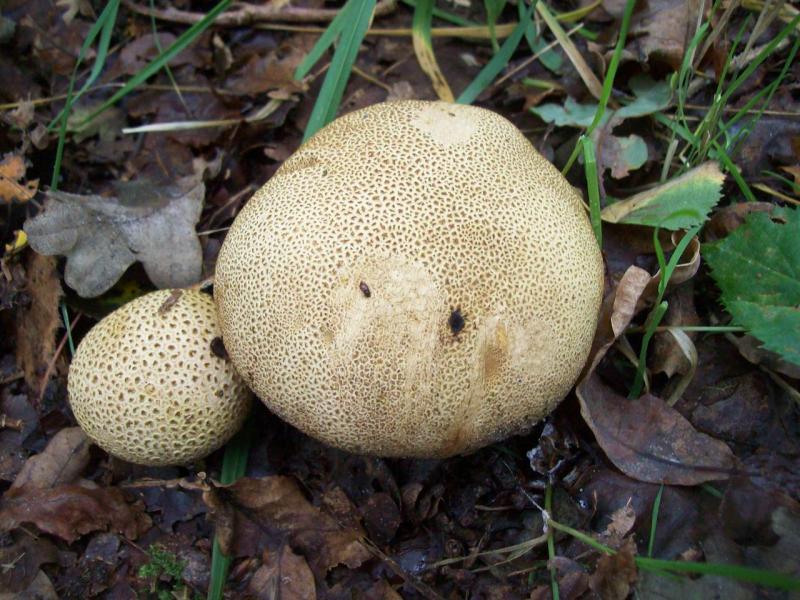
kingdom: Fungi
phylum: Basidiomycota
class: Agaricomycetes
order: Boletales
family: Sclerodermataceae
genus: Scleroderma
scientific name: Scleroderma bovista
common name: Potato earthball
